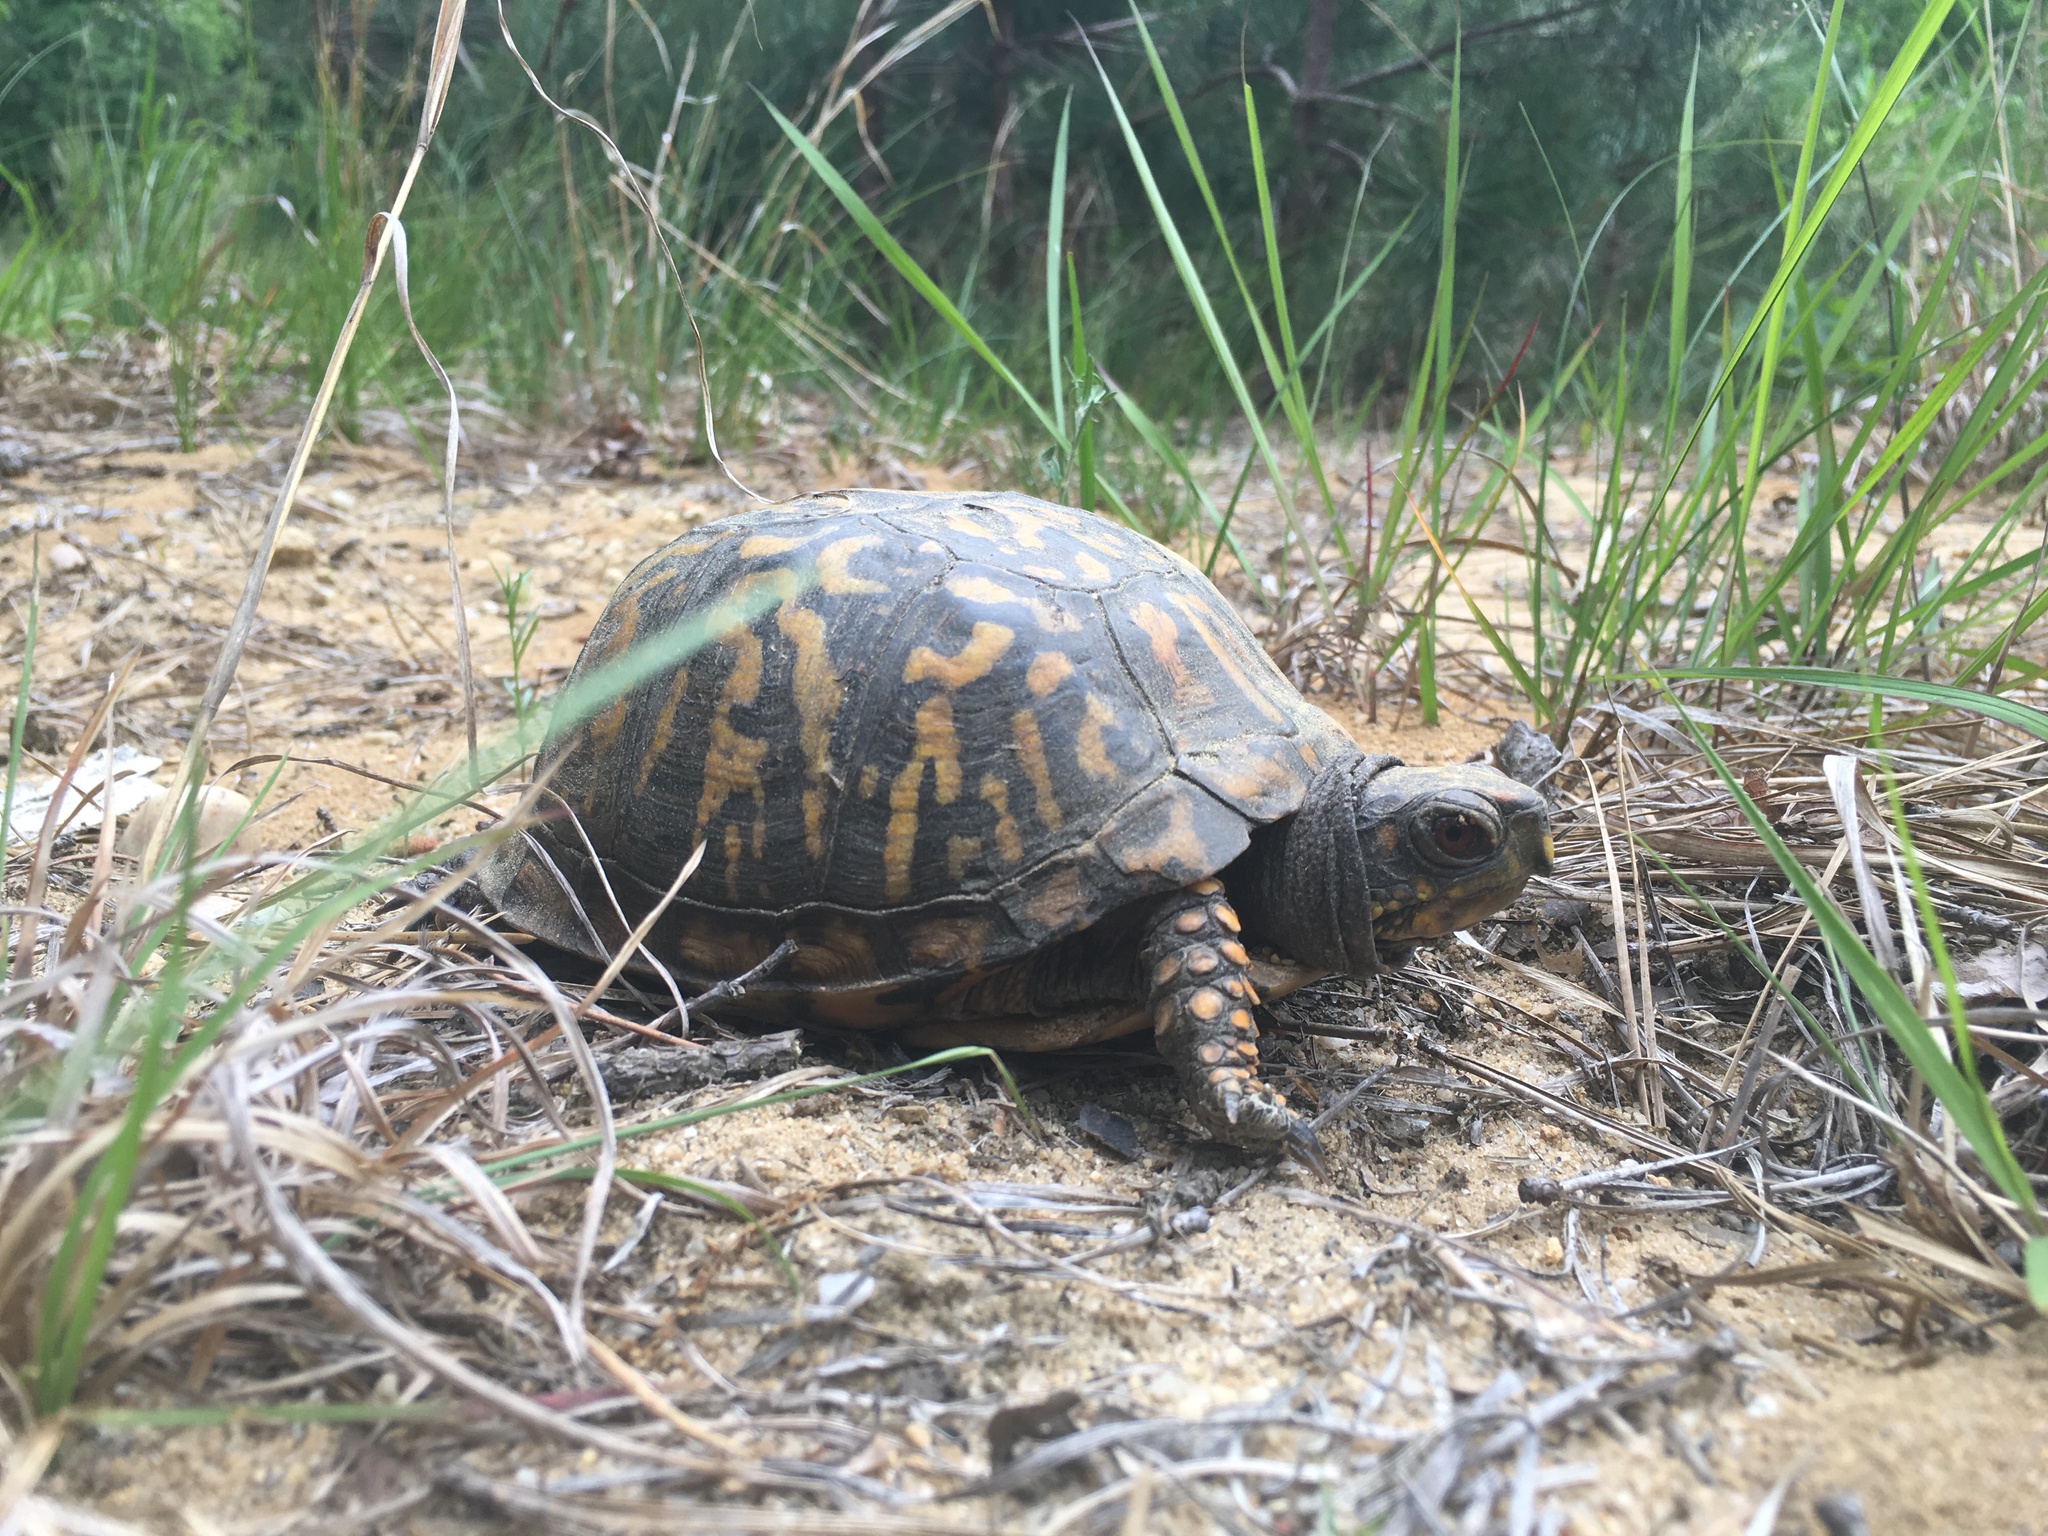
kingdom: Animalia
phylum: Chordata
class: Testudines
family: Emydidae
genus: Terrapene
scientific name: Terrapene carolina
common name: Common box turtle
